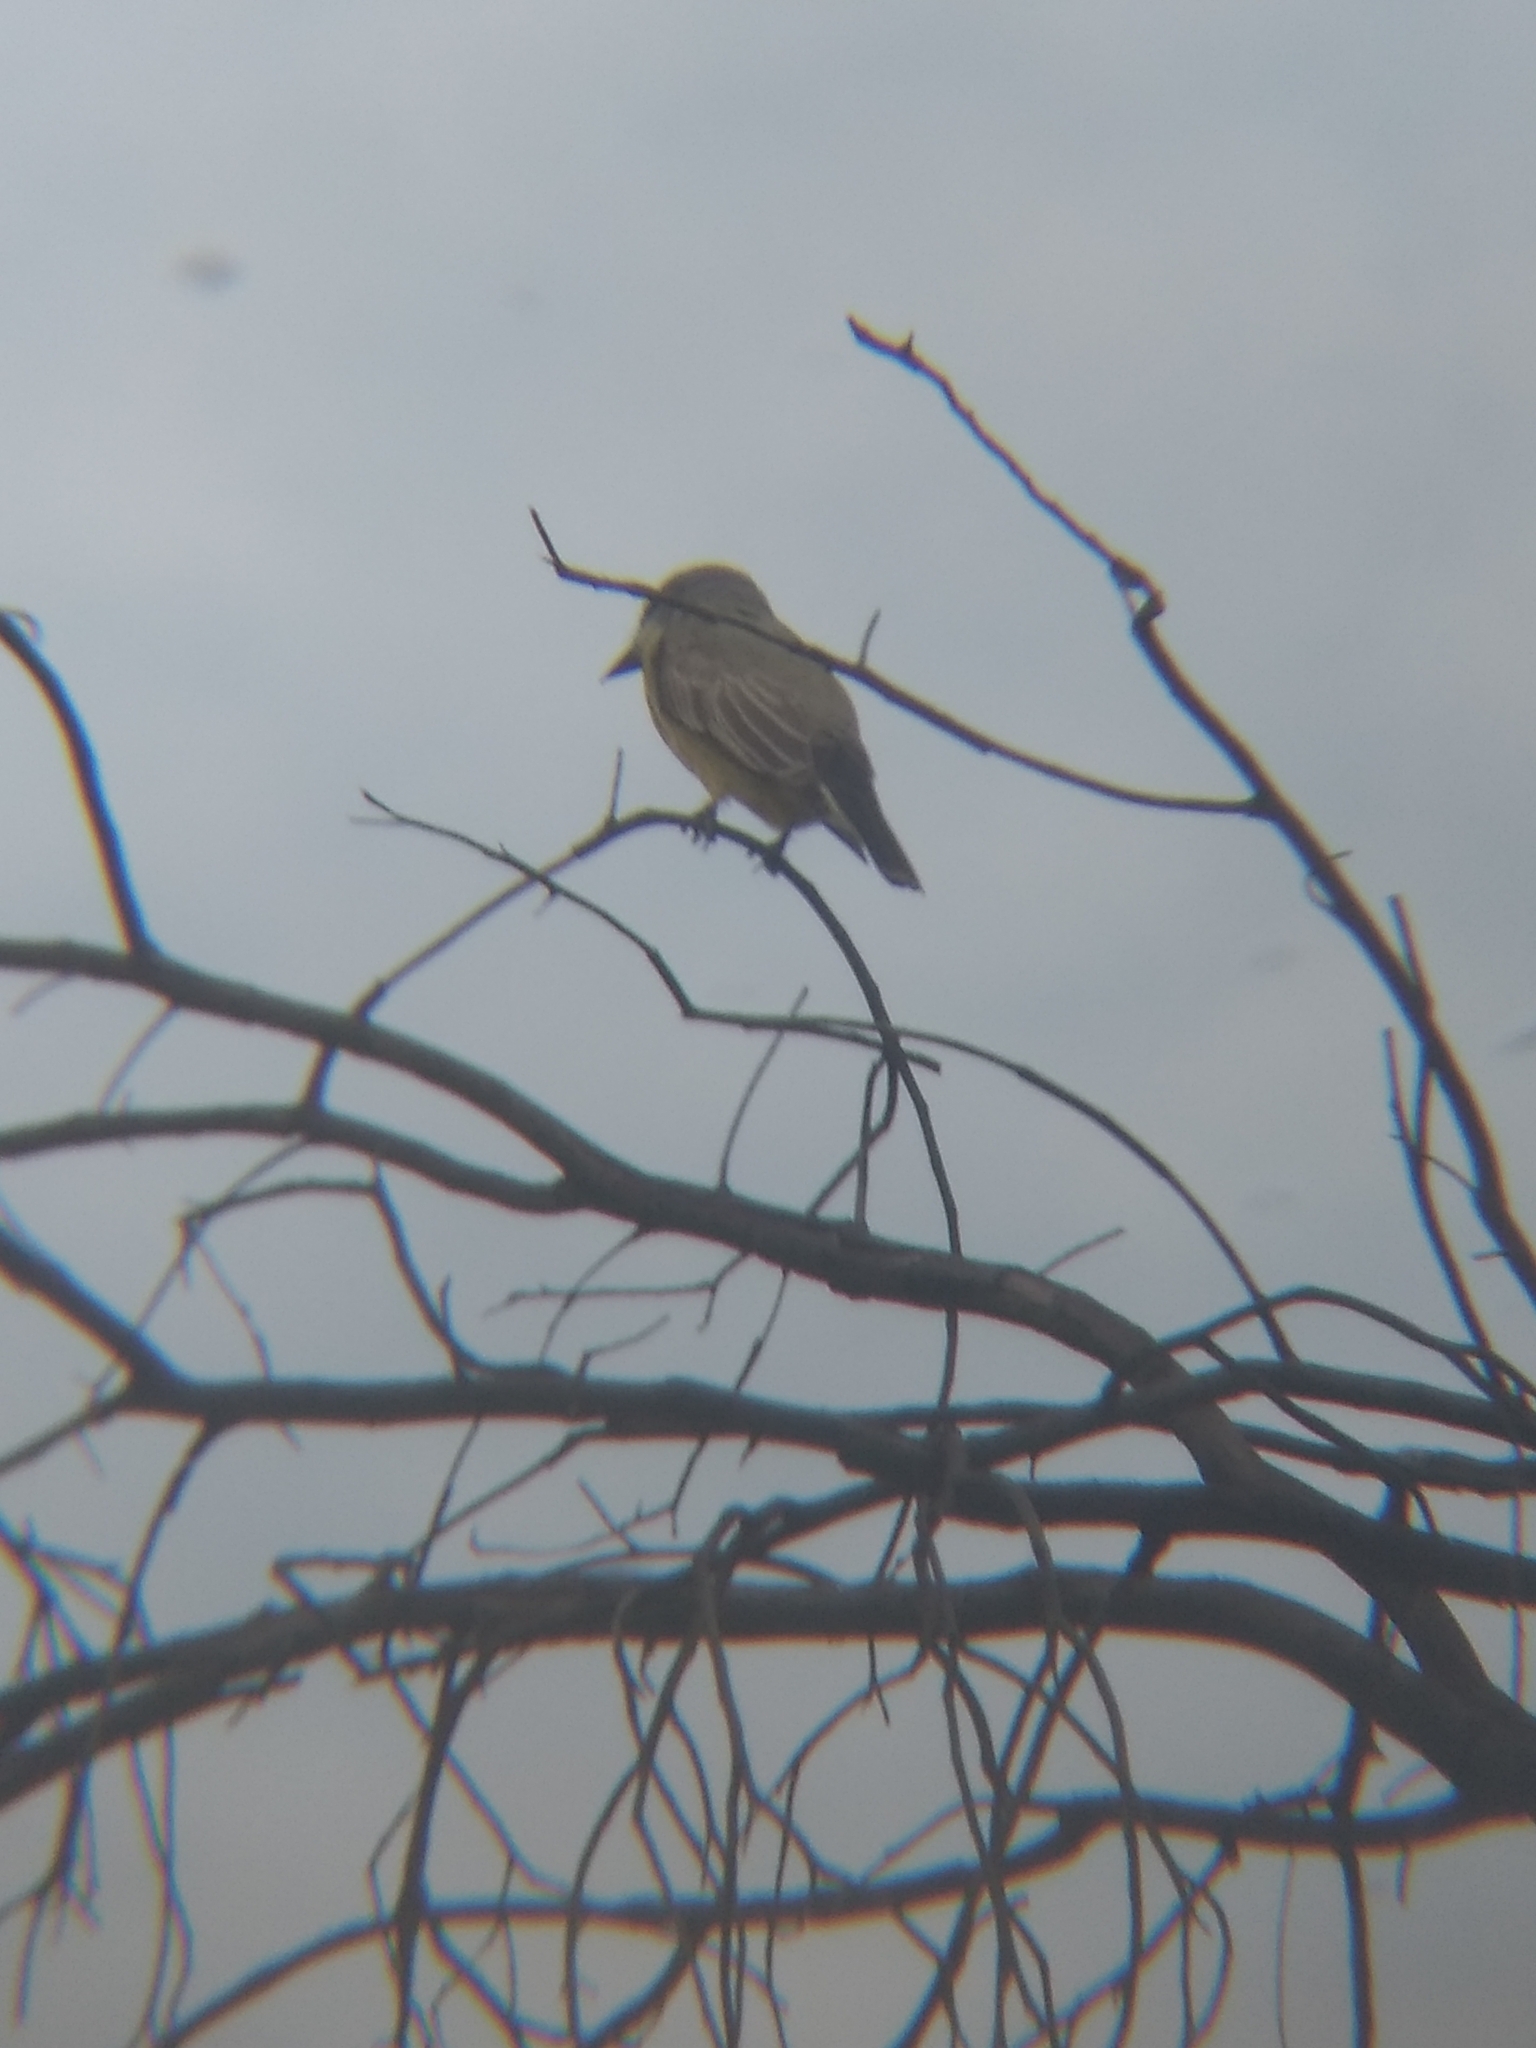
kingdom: Animalia
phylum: Chordata
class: Aves
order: Passeriformes
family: Tyrannidae
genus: Sayornis
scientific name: Sayornis saya
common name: Say's phoebe
